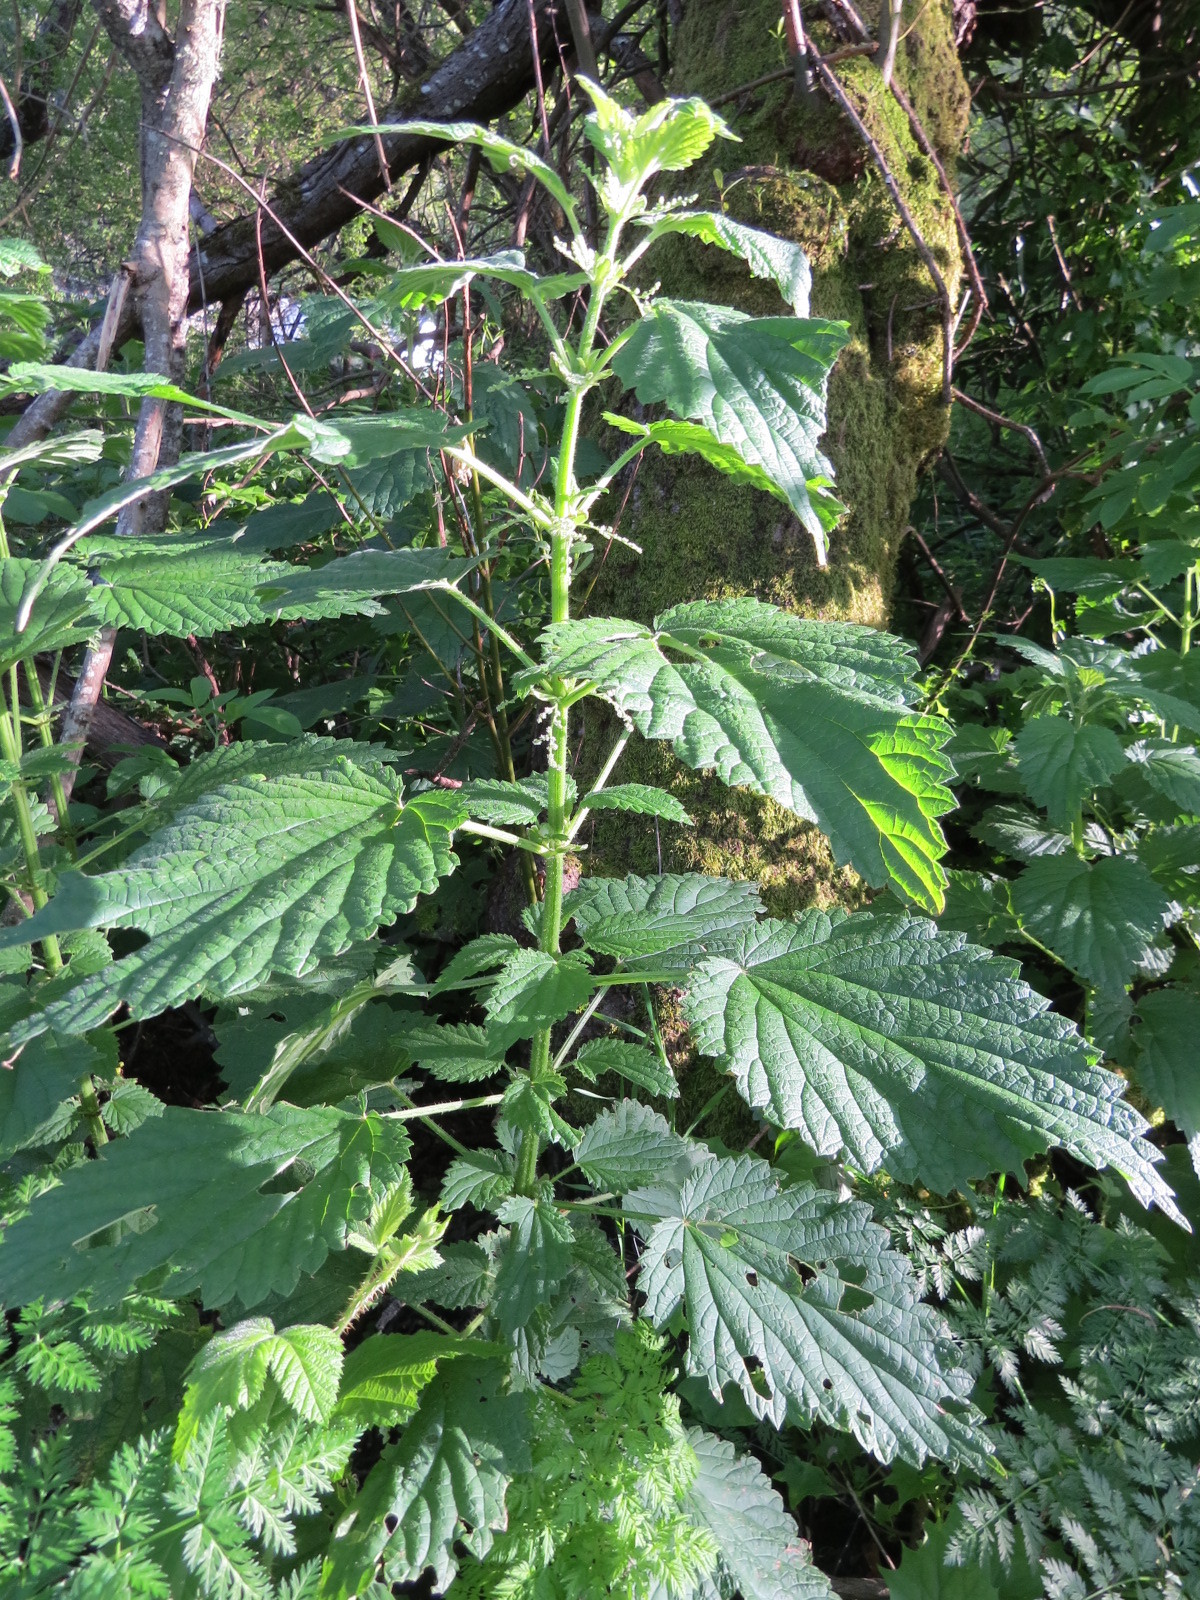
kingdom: Plantae
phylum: Tracheophyta
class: Magnoliopsida
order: Rosales
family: Urticaceae
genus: Urtica
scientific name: Urtica gracilis
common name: Slender stinging nettle
